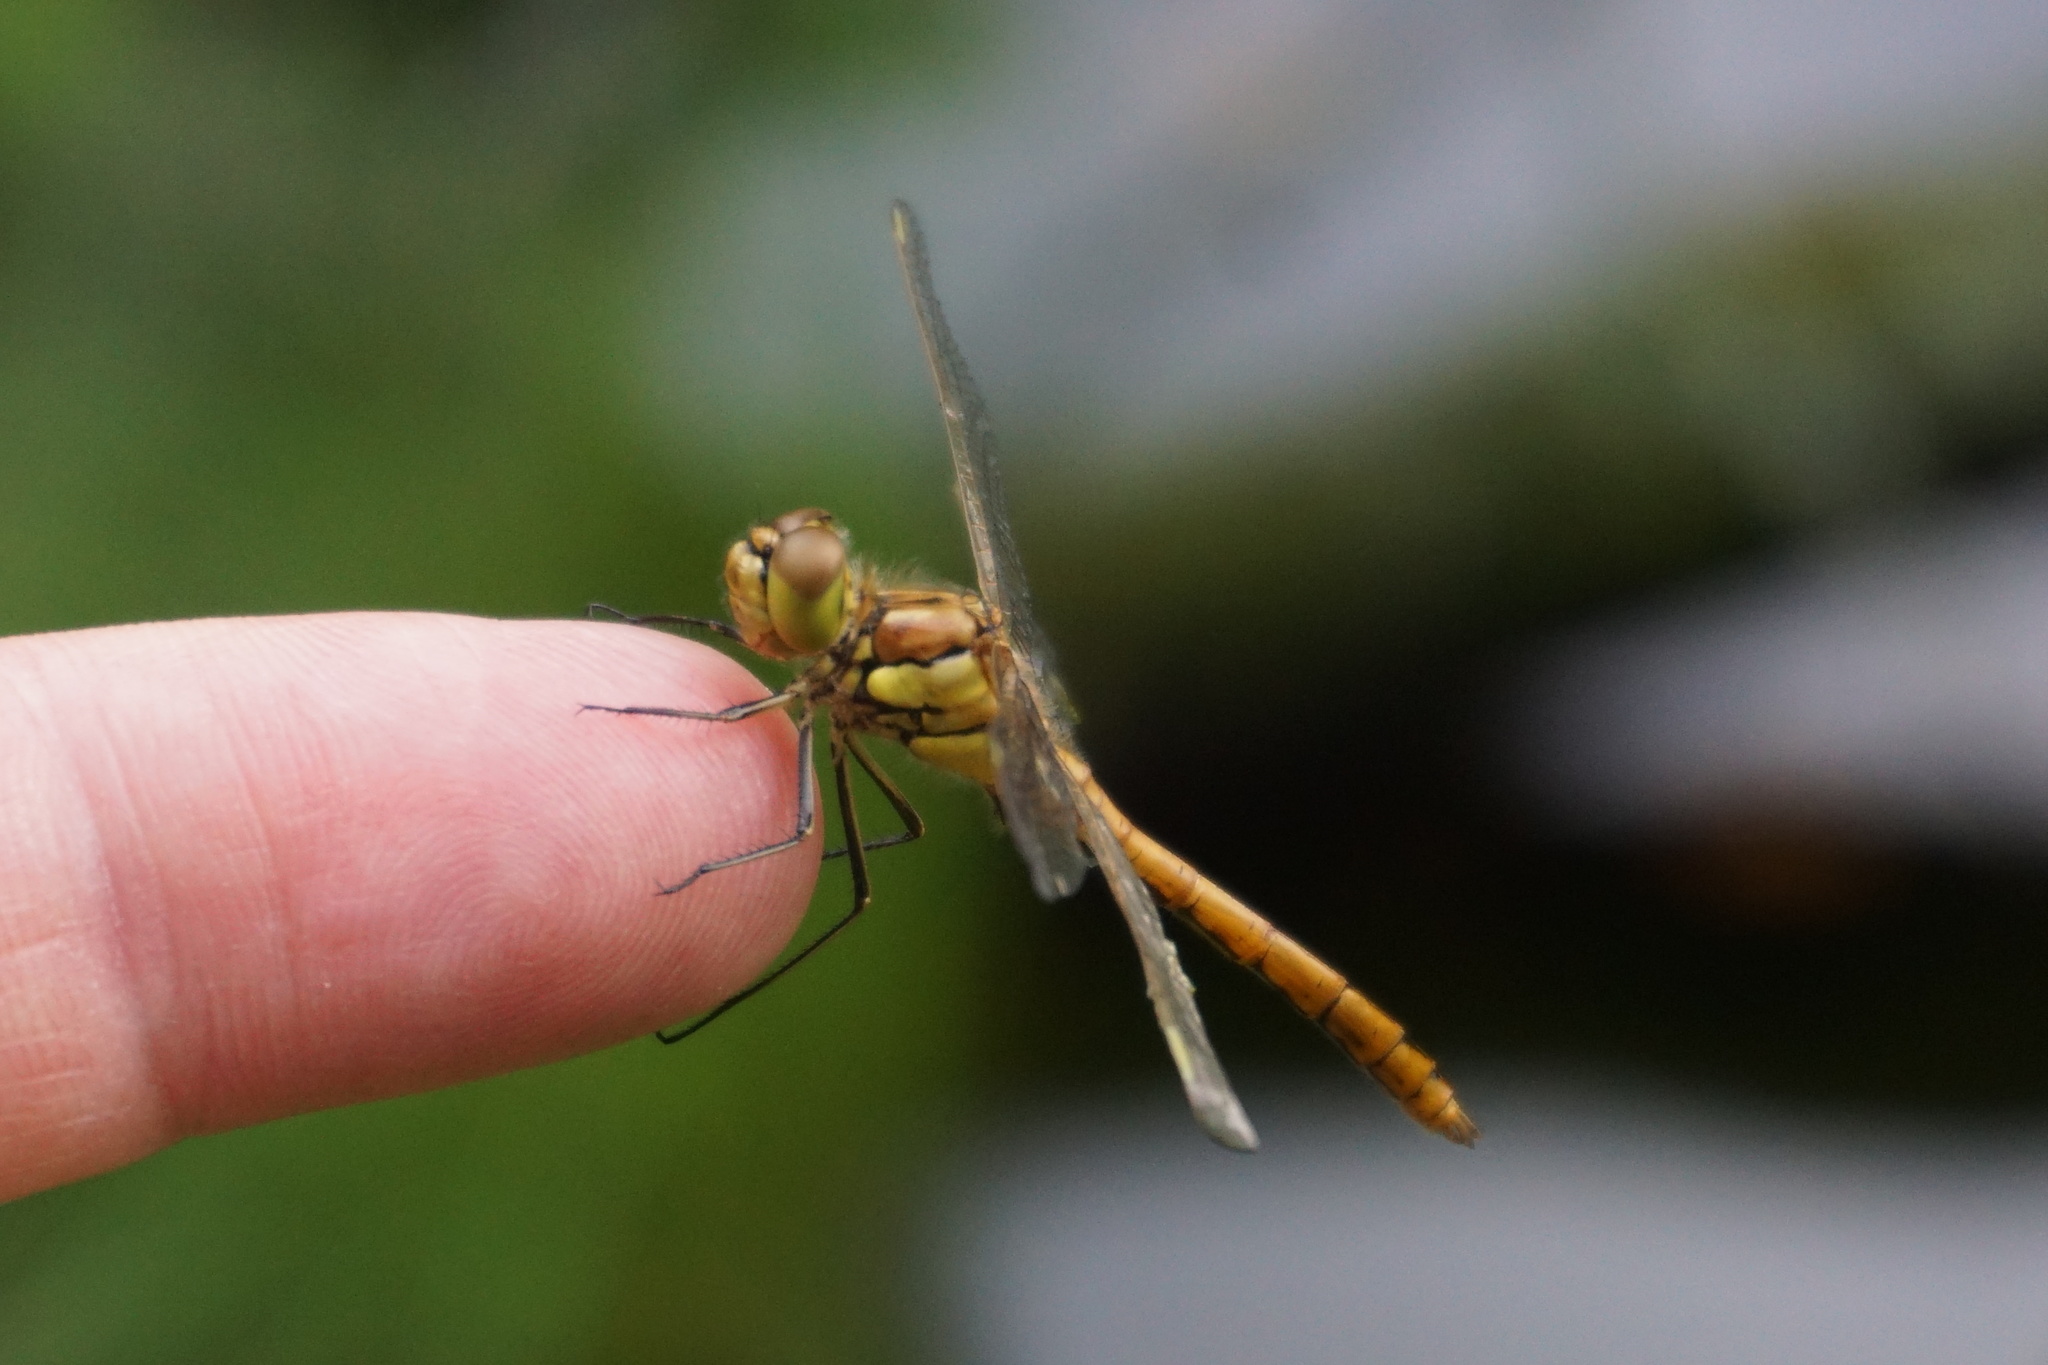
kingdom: Animalia
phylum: Arthropoda
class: Insecta
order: Odonata
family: Libellulidae
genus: Sympetrum
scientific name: Sympetrum vulgatum
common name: Vagrant darter
